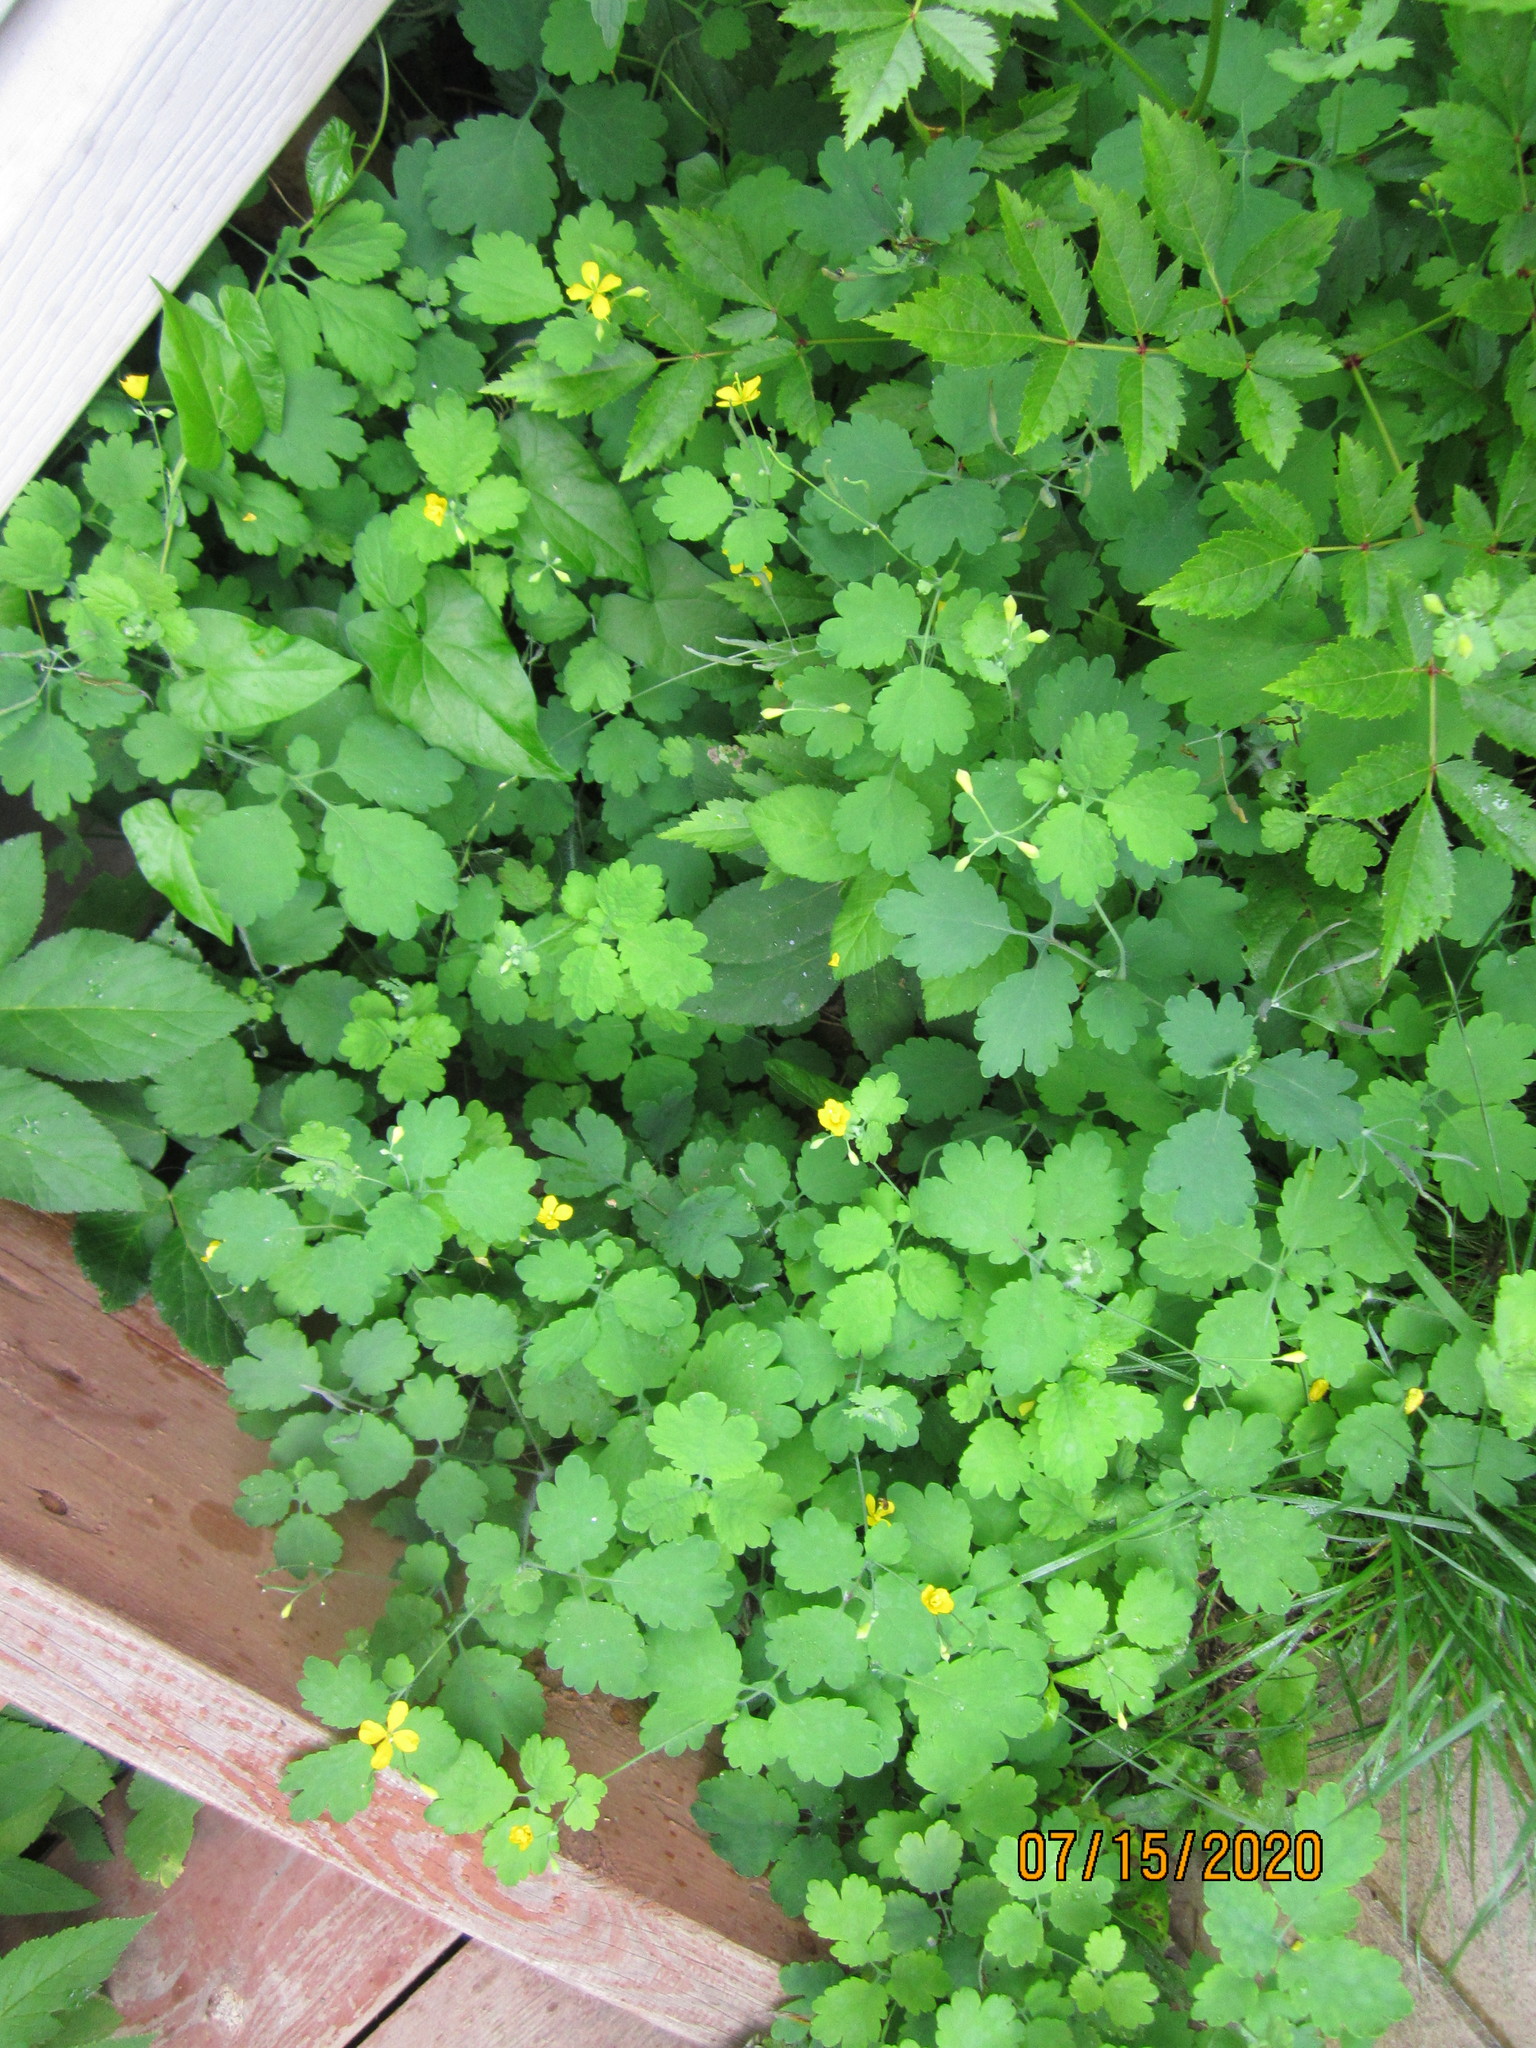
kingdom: Plantae
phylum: Tracheophyta
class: Magnoliopsida
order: Ranunculales
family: Papaveraceae
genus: Chelidonium
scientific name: Chelidonium majus
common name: Greater celandine
